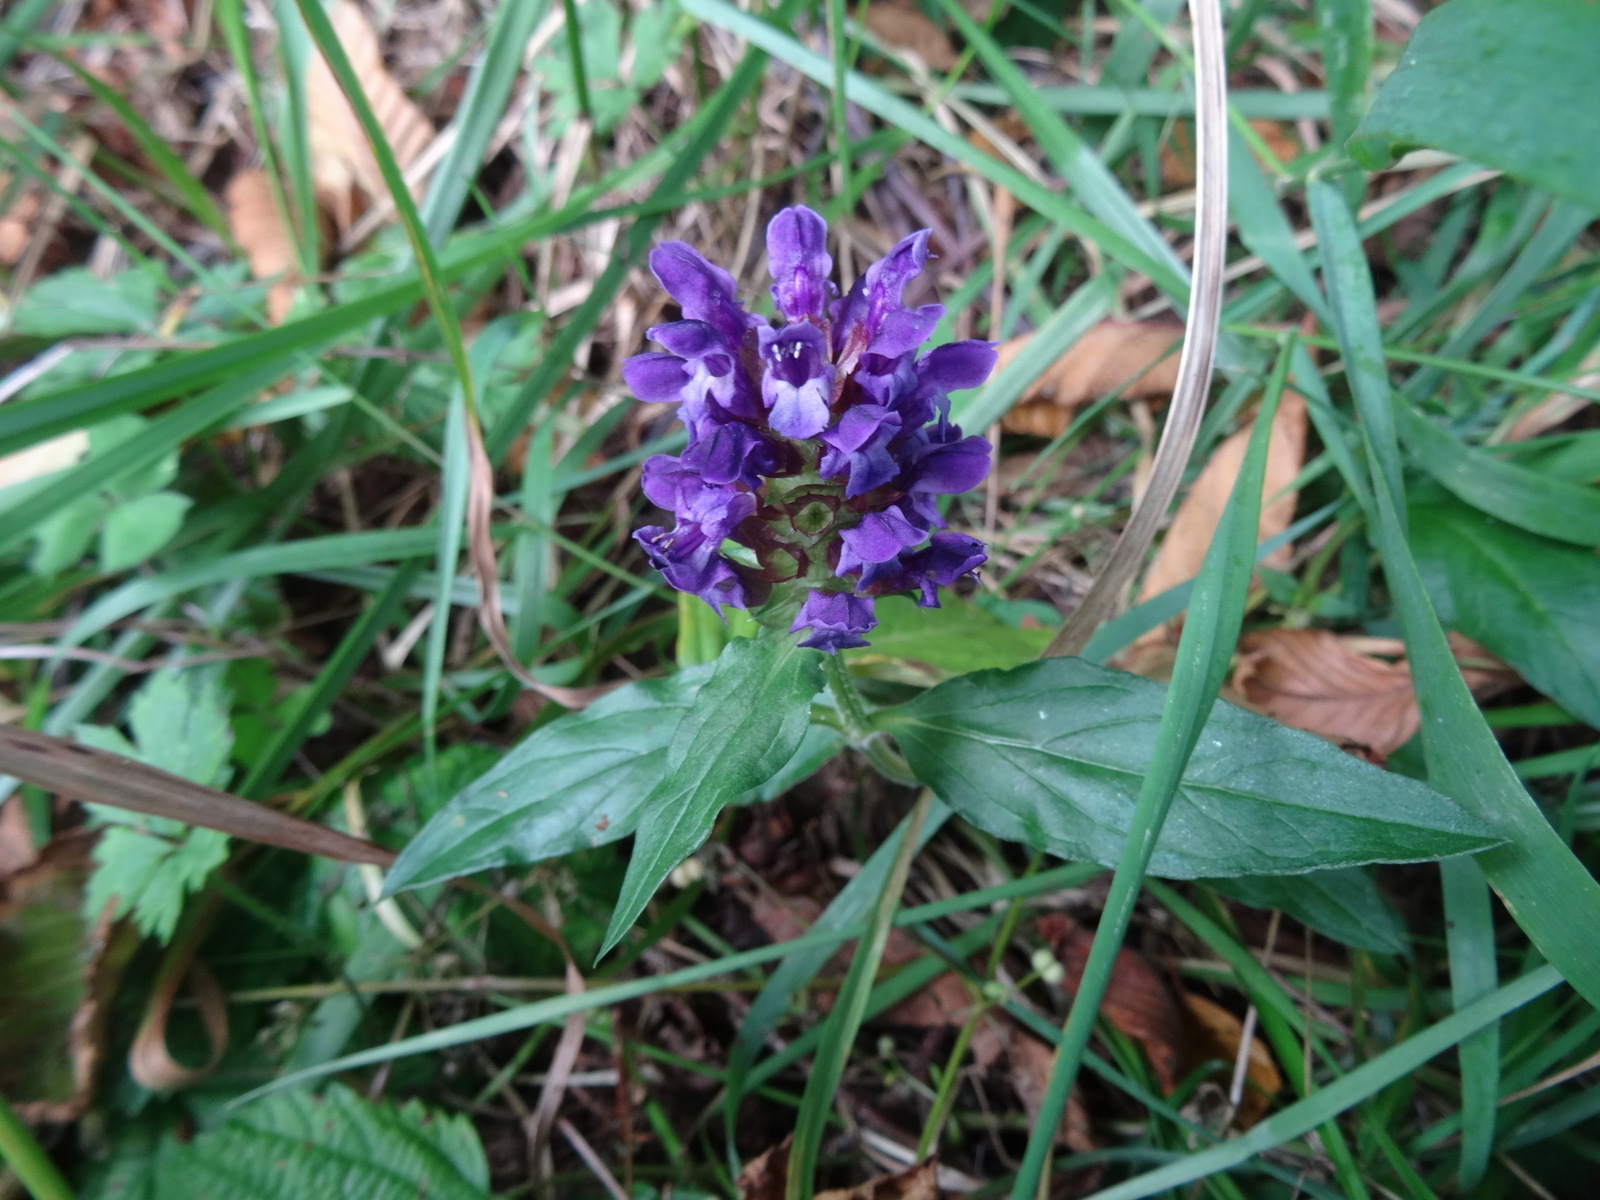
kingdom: Plantae
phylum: Tracheophyta
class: Magnoliopsida
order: Lamiales
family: Lamiaceae
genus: Prunella
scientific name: Prunella vulgaris
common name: Heal-all
